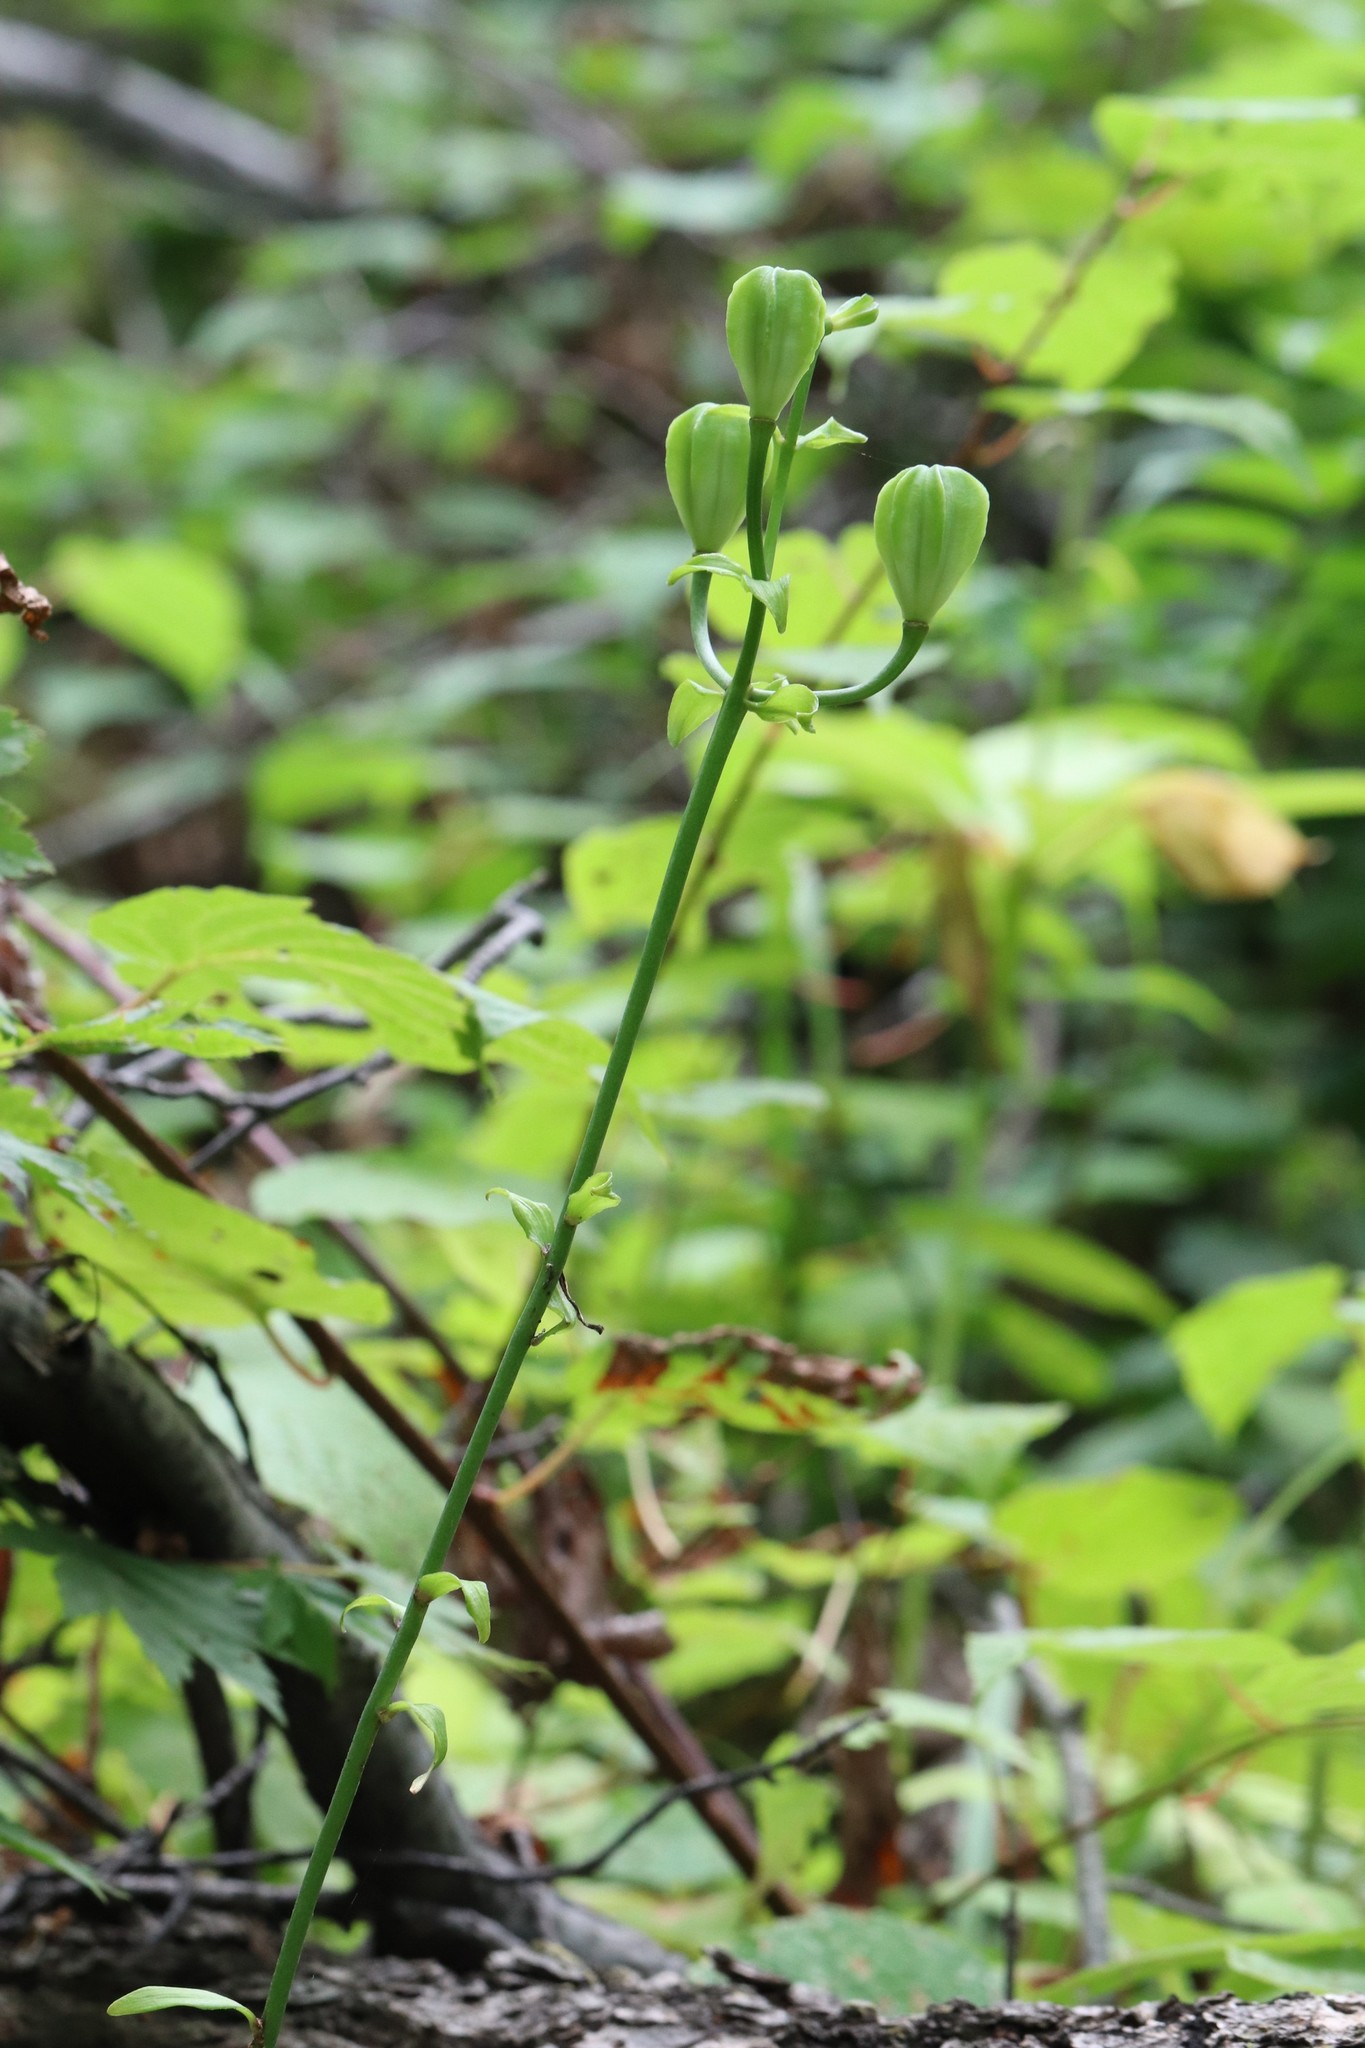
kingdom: Plantae
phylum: Tracheophyta
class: Liliopsida
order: Liliales
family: Liliaceae
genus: Lilium
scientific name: Lilium distichum
